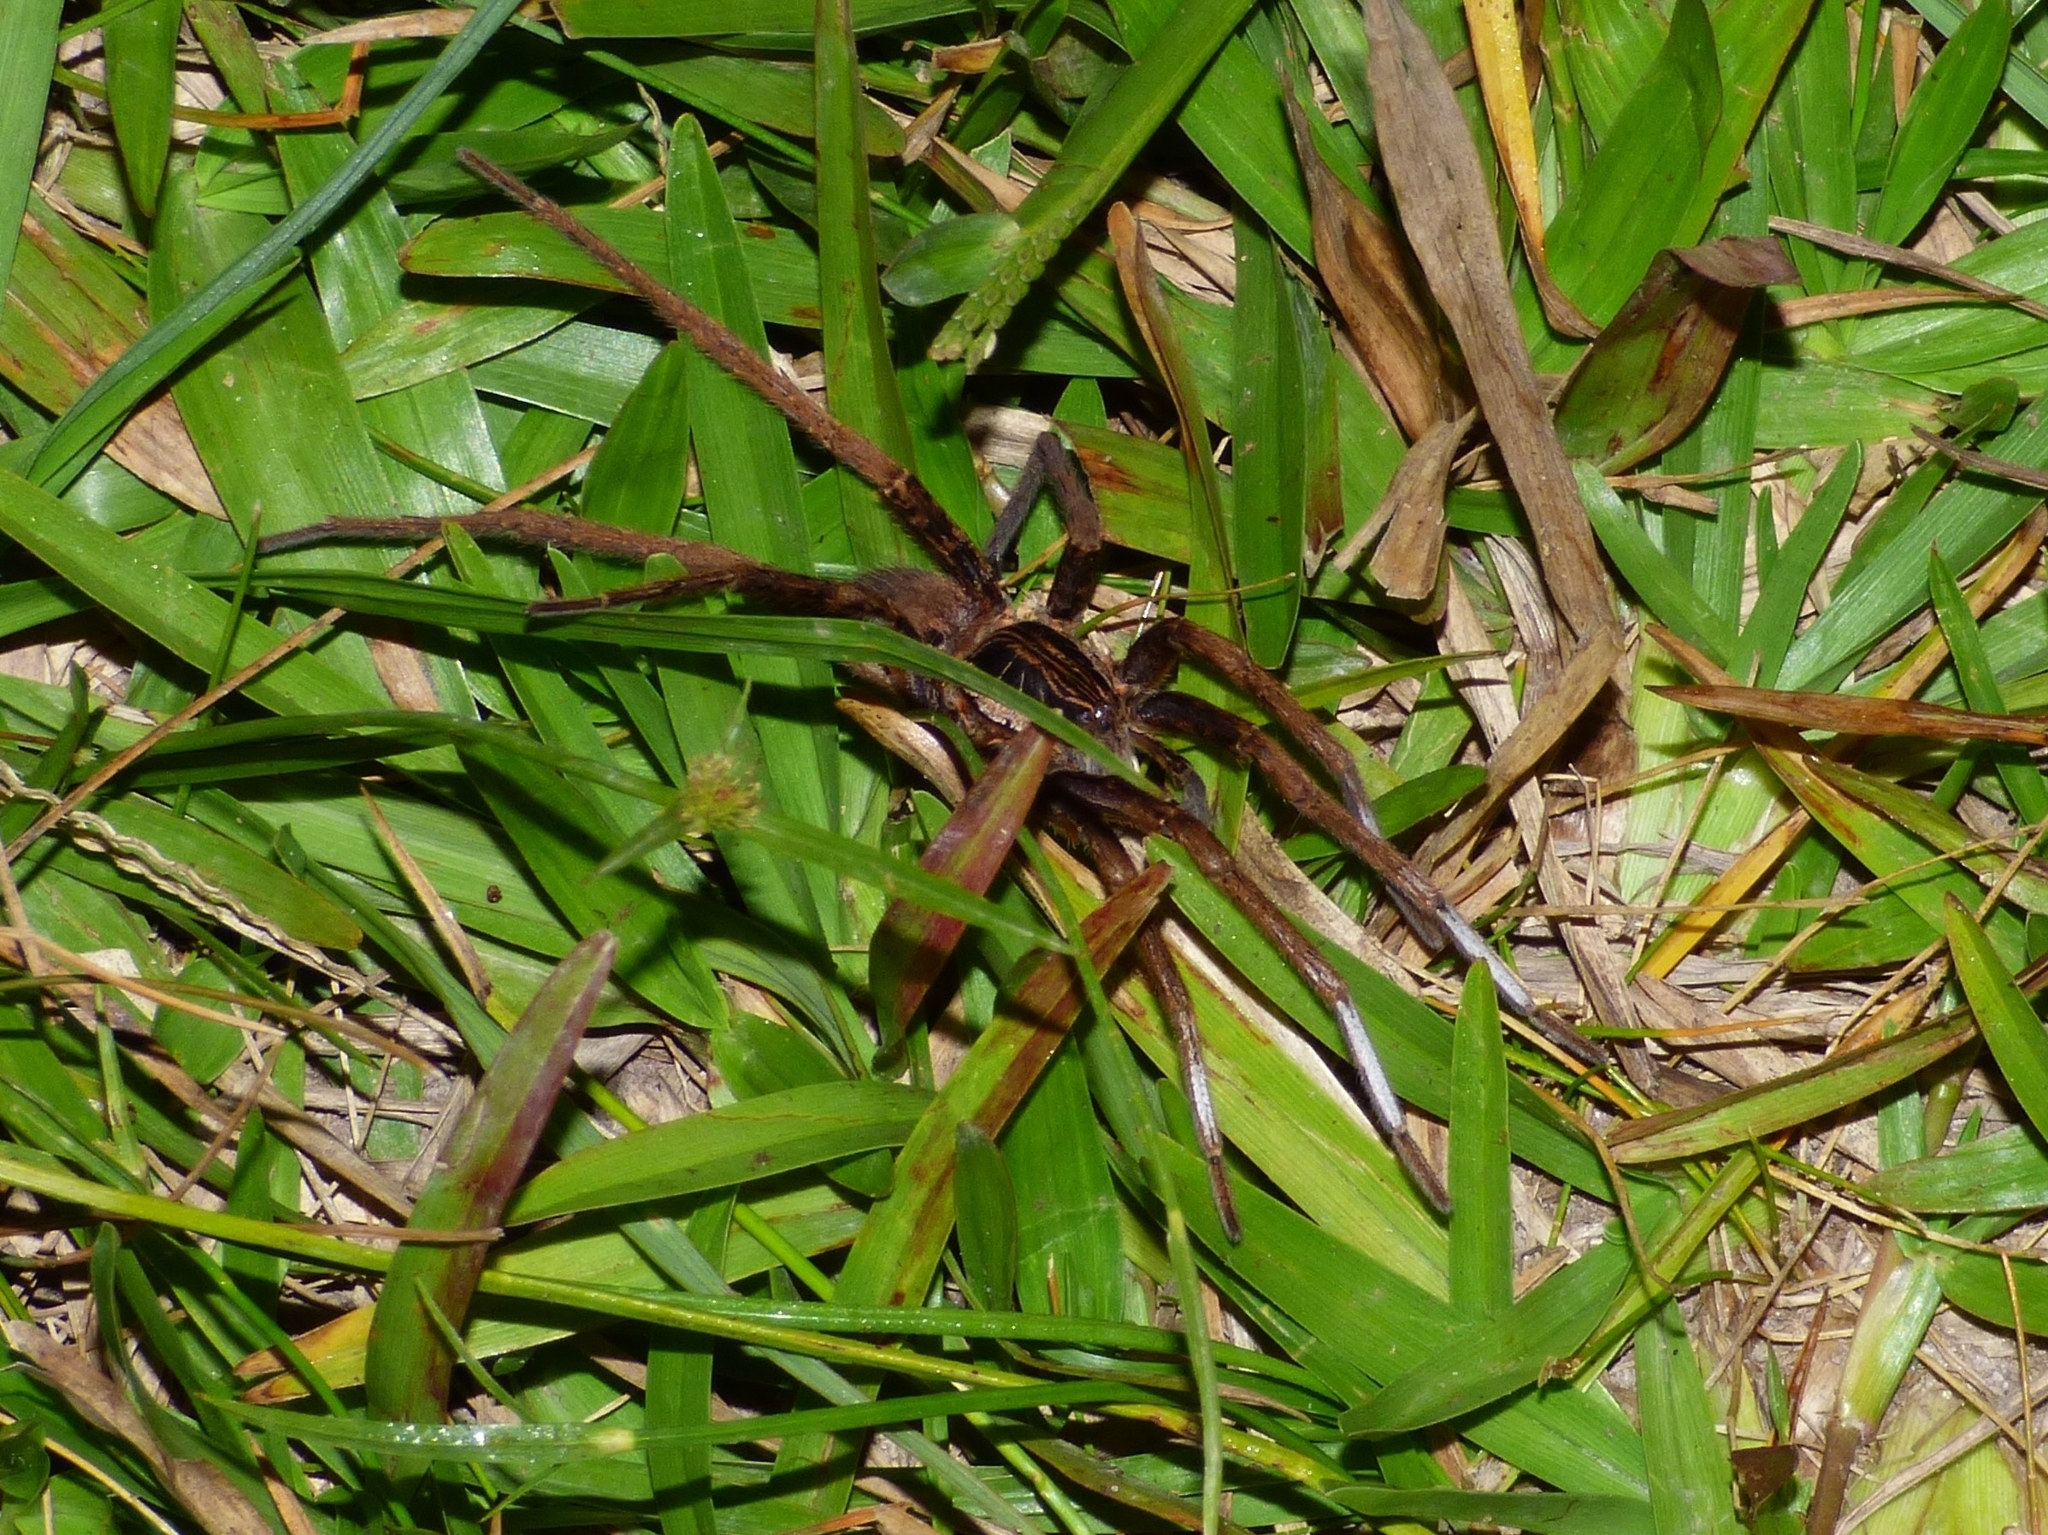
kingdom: Animalia
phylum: Arthropoda
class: Arachnida
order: Araneae
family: Ctenidae
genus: Ancylometes
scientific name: Ancylometes concolor
